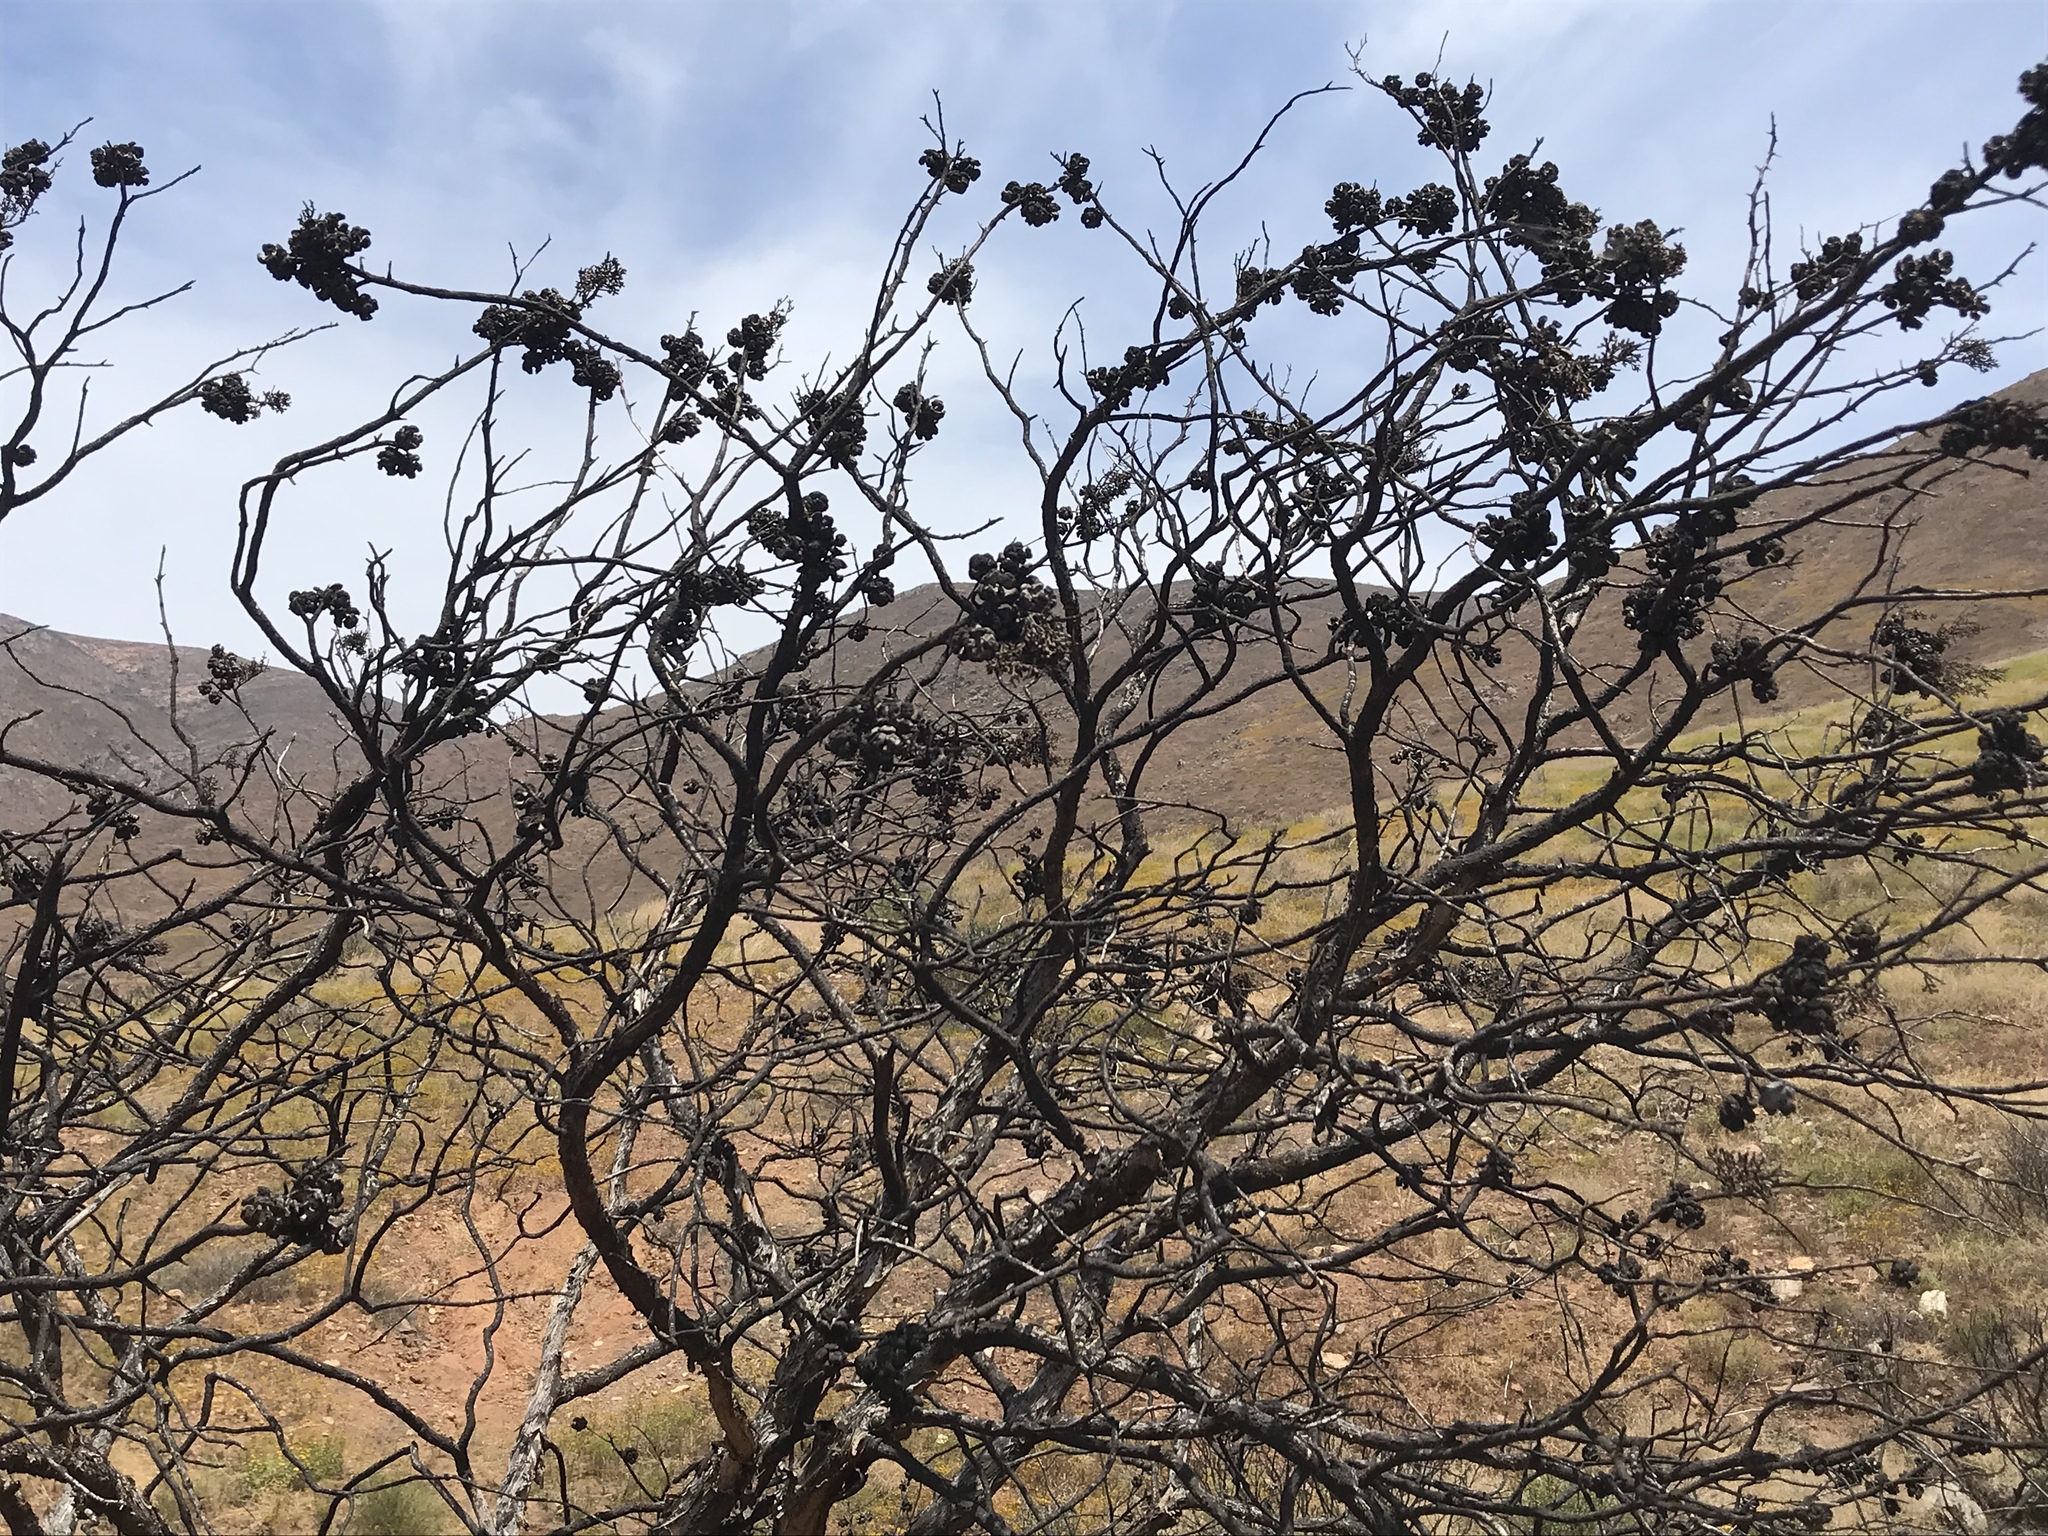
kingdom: Plantae
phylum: Tracheophyta
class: Pinopsida
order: Pinales
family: Cupressaceae
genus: Cupressus
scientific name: Cupressus guadalupensis
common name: Forbes cypress
